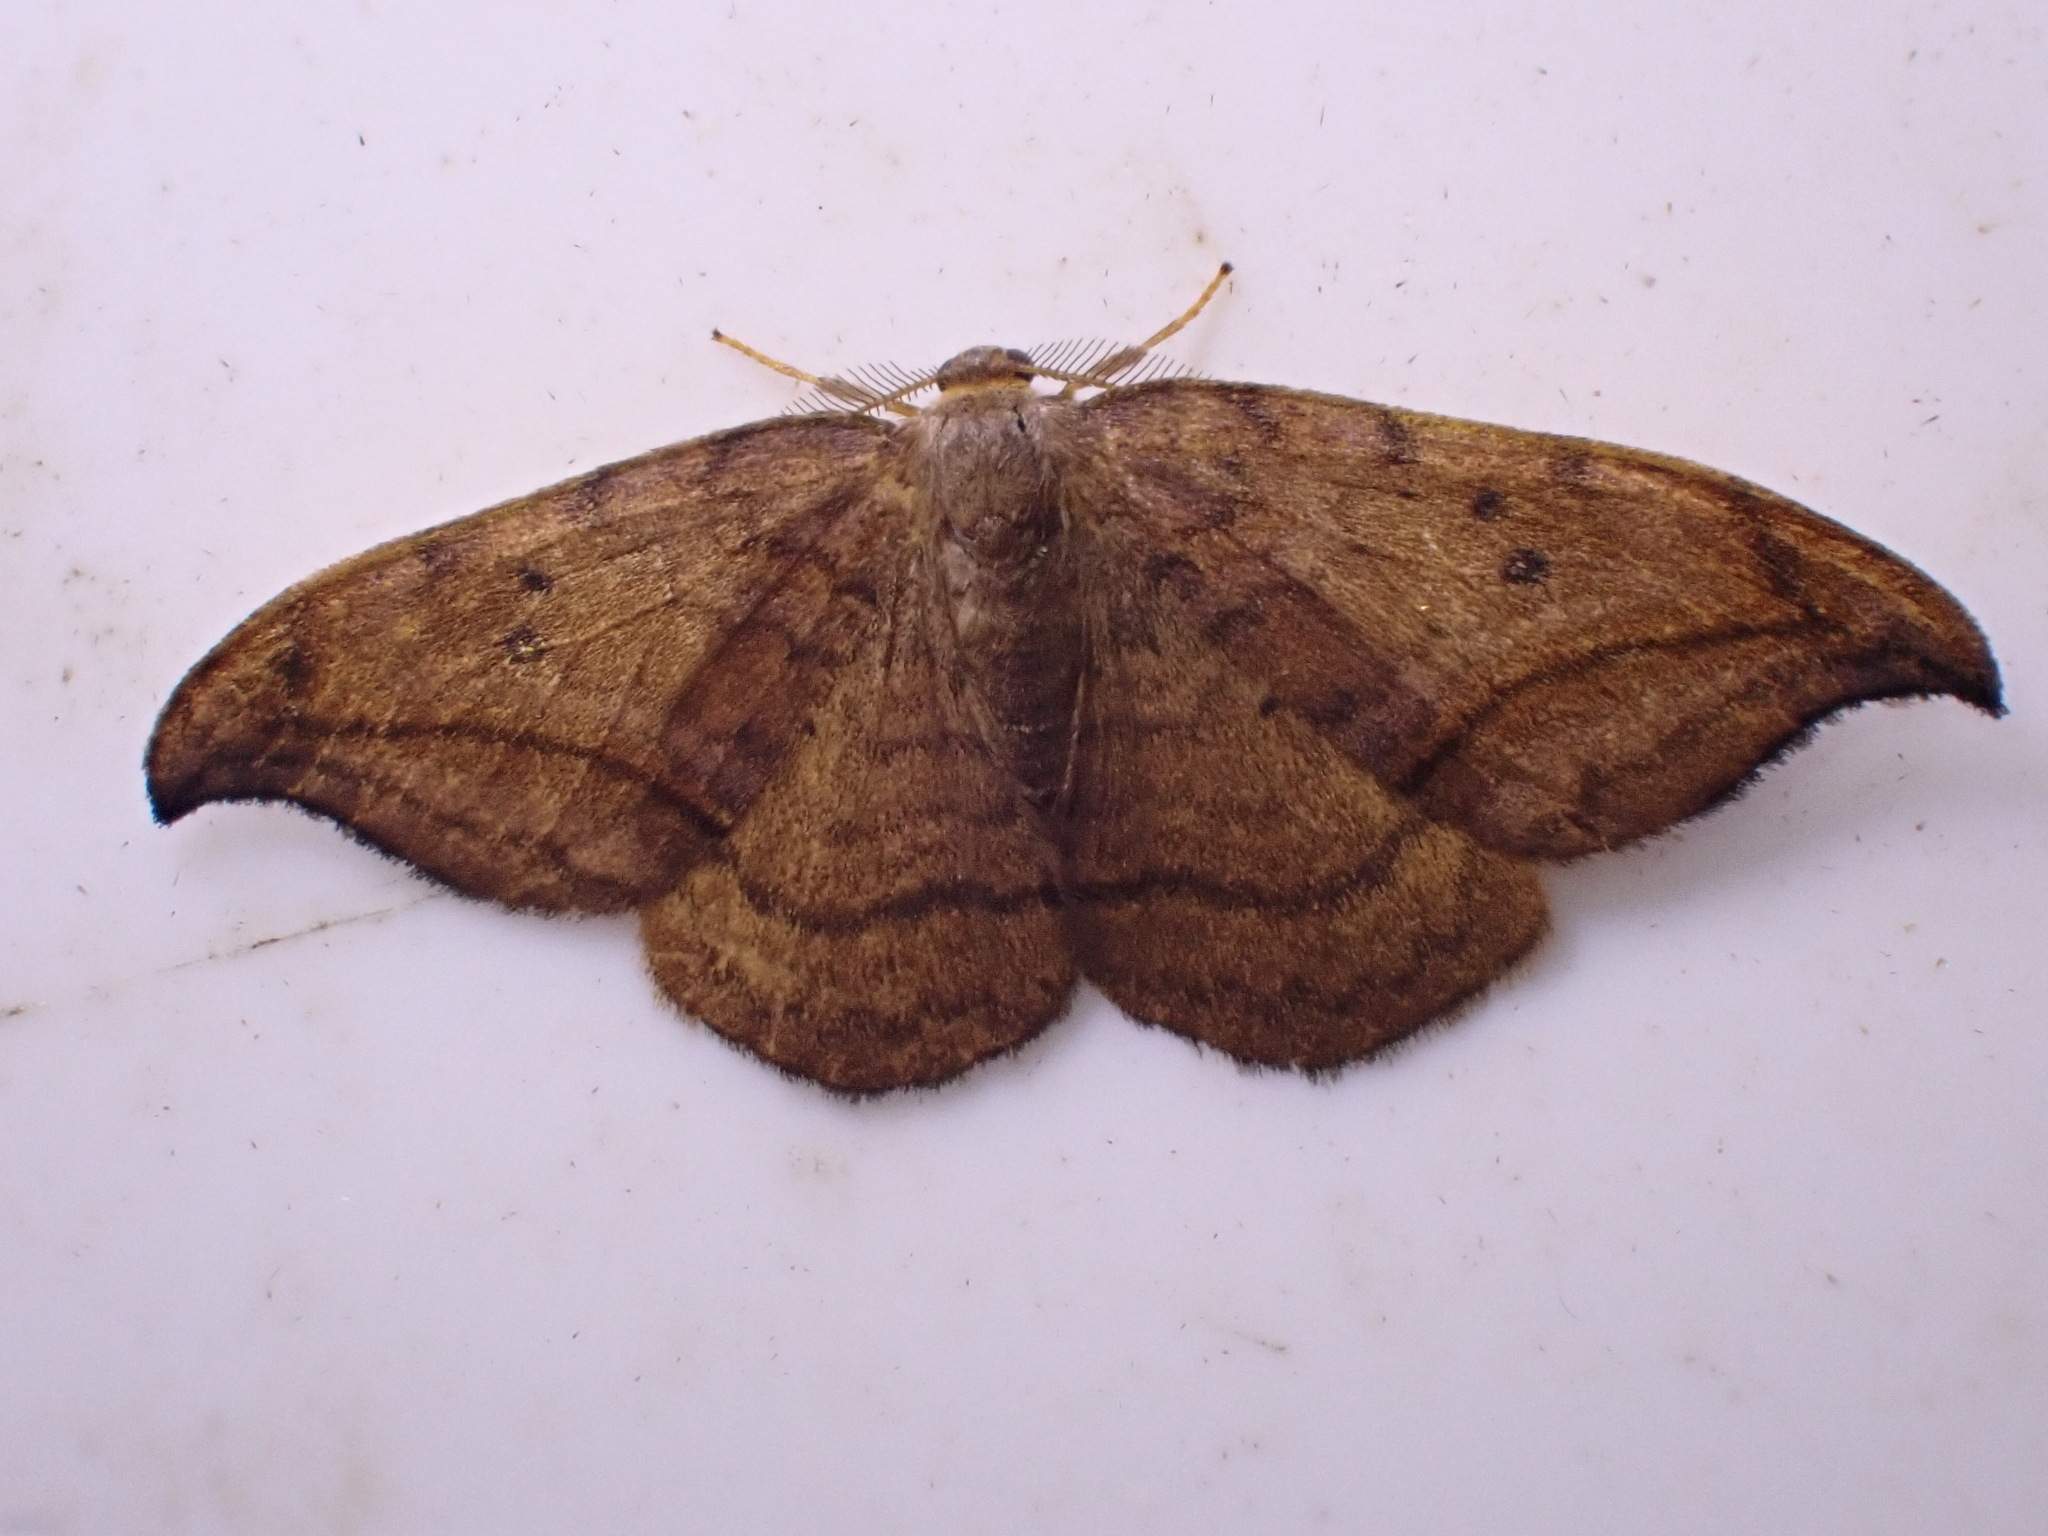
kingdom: Animalia
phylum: Arthropoda
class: Insecta
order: Lepidoptera
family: Drepanidae
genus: Drepana
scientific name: Drepana curvatula
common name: Dusky hook-tip
